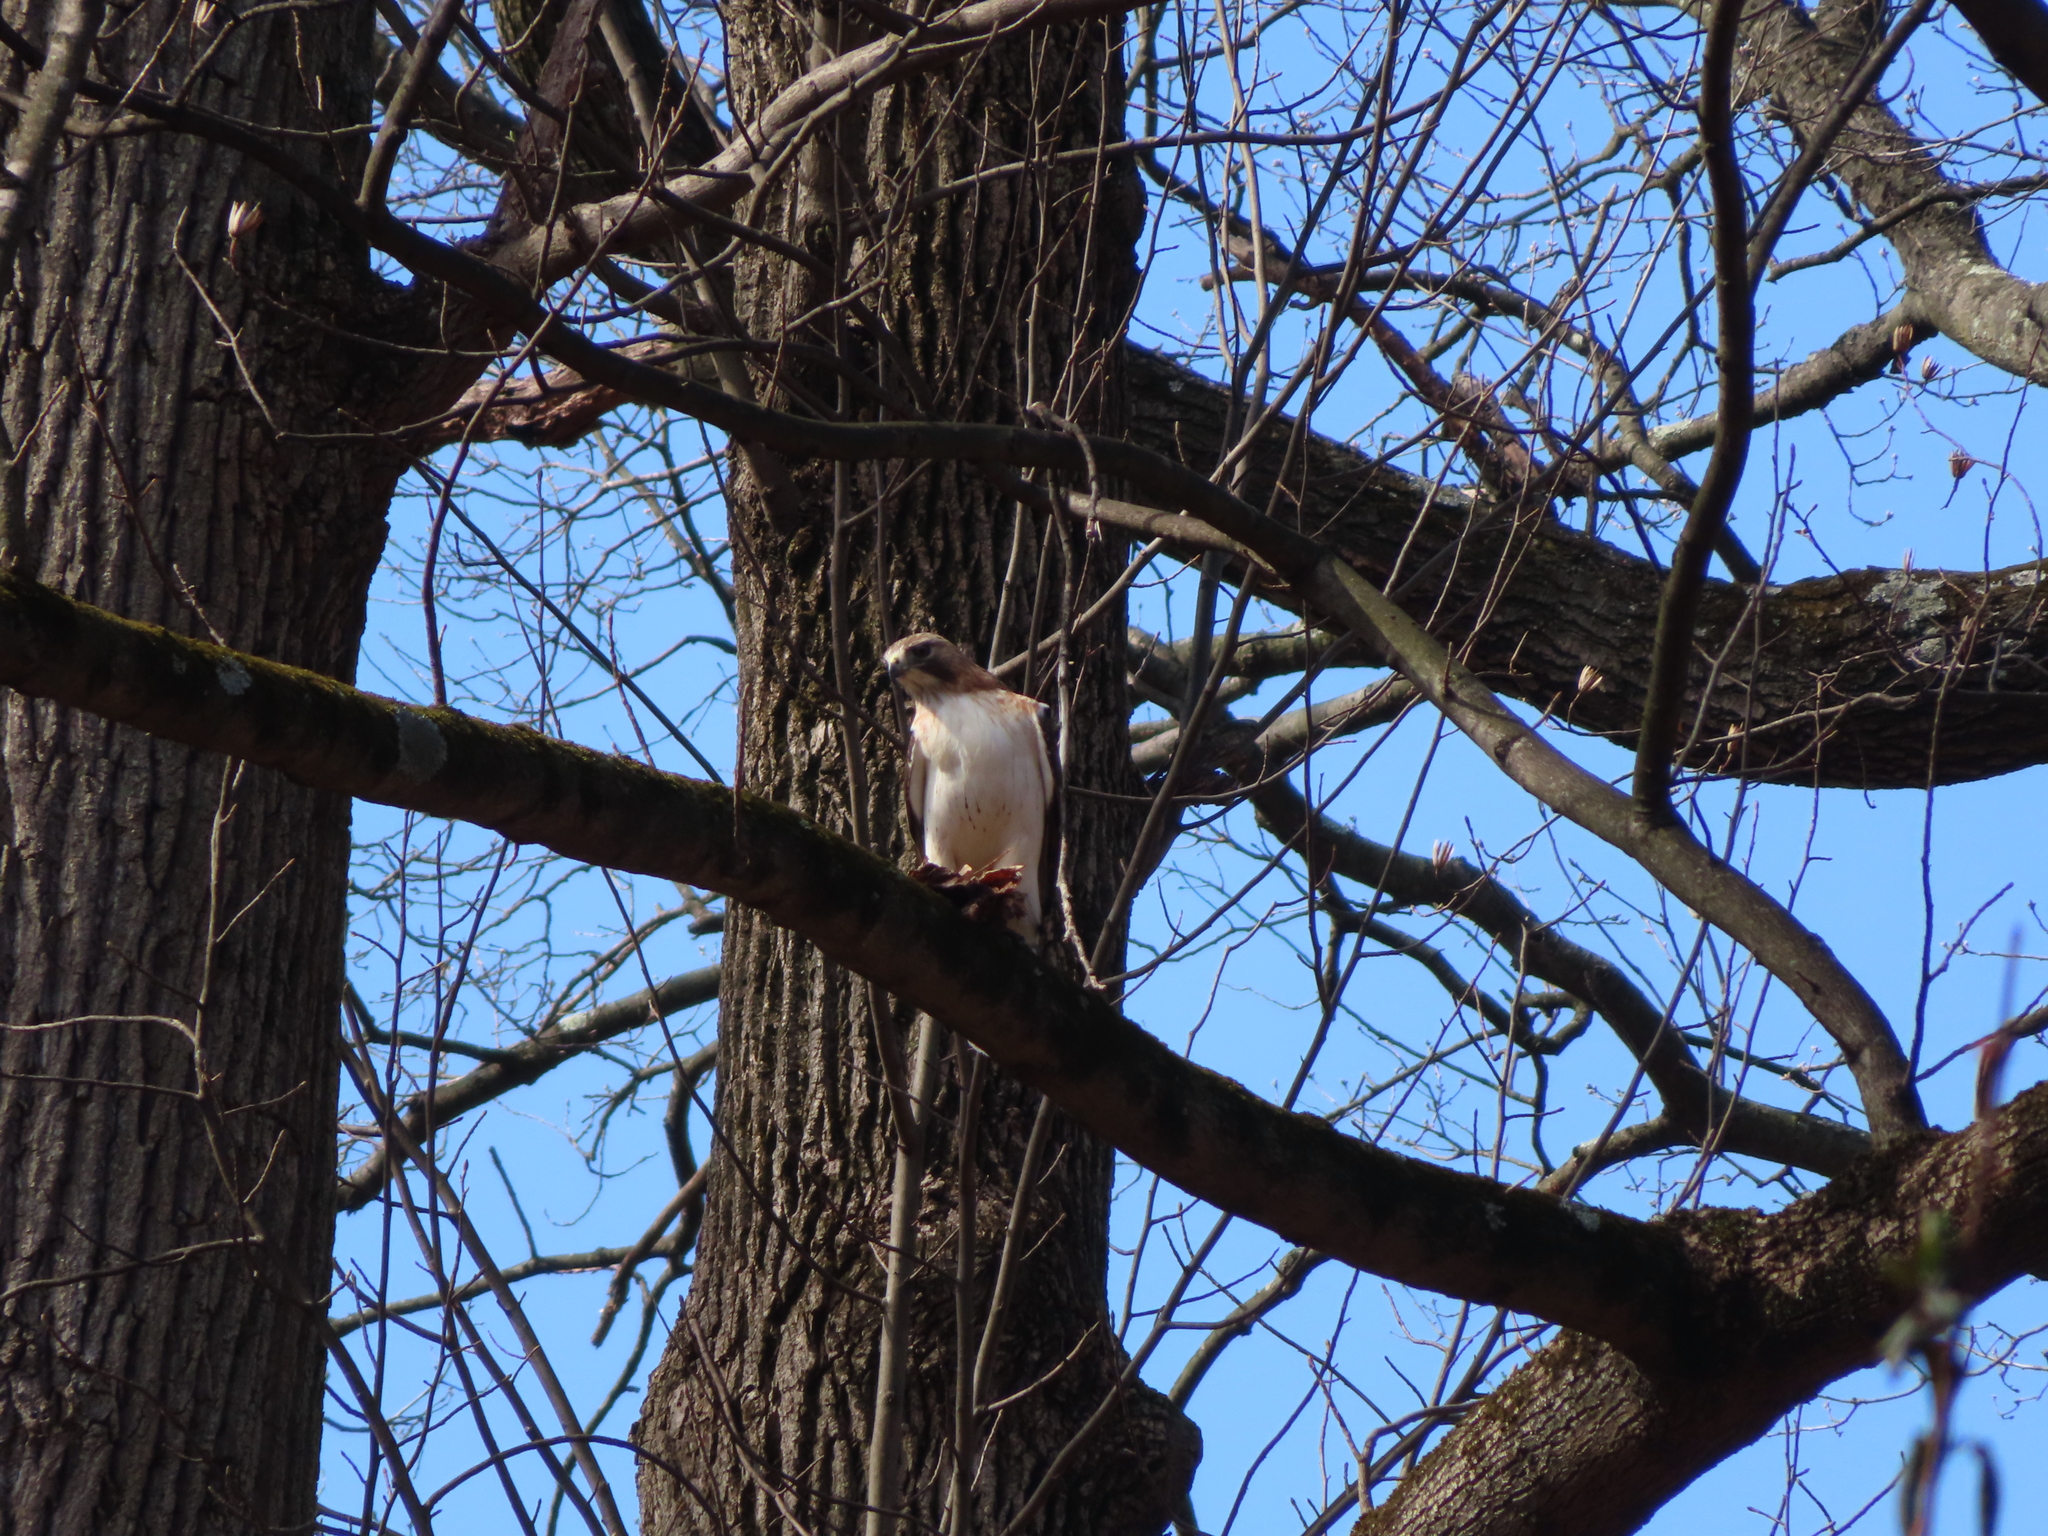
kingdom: Animalia
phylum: Chordata
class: Aves
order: Accipitriformes
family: Accipitridae
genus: Buteo
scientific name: Buteo jamaicensis
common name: Red-tailed hawk
